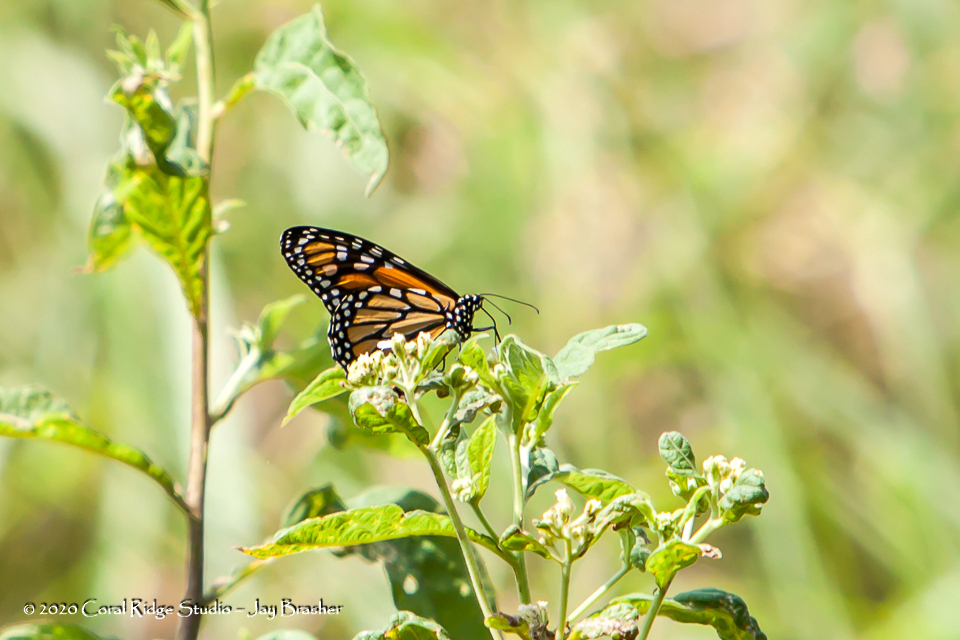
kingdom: Animalia
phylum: Arthropoda
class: Insecta
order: Lepidoptera
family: Nymphalidae
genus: Danaus
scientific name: Danaus plexippus
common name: Monarch
